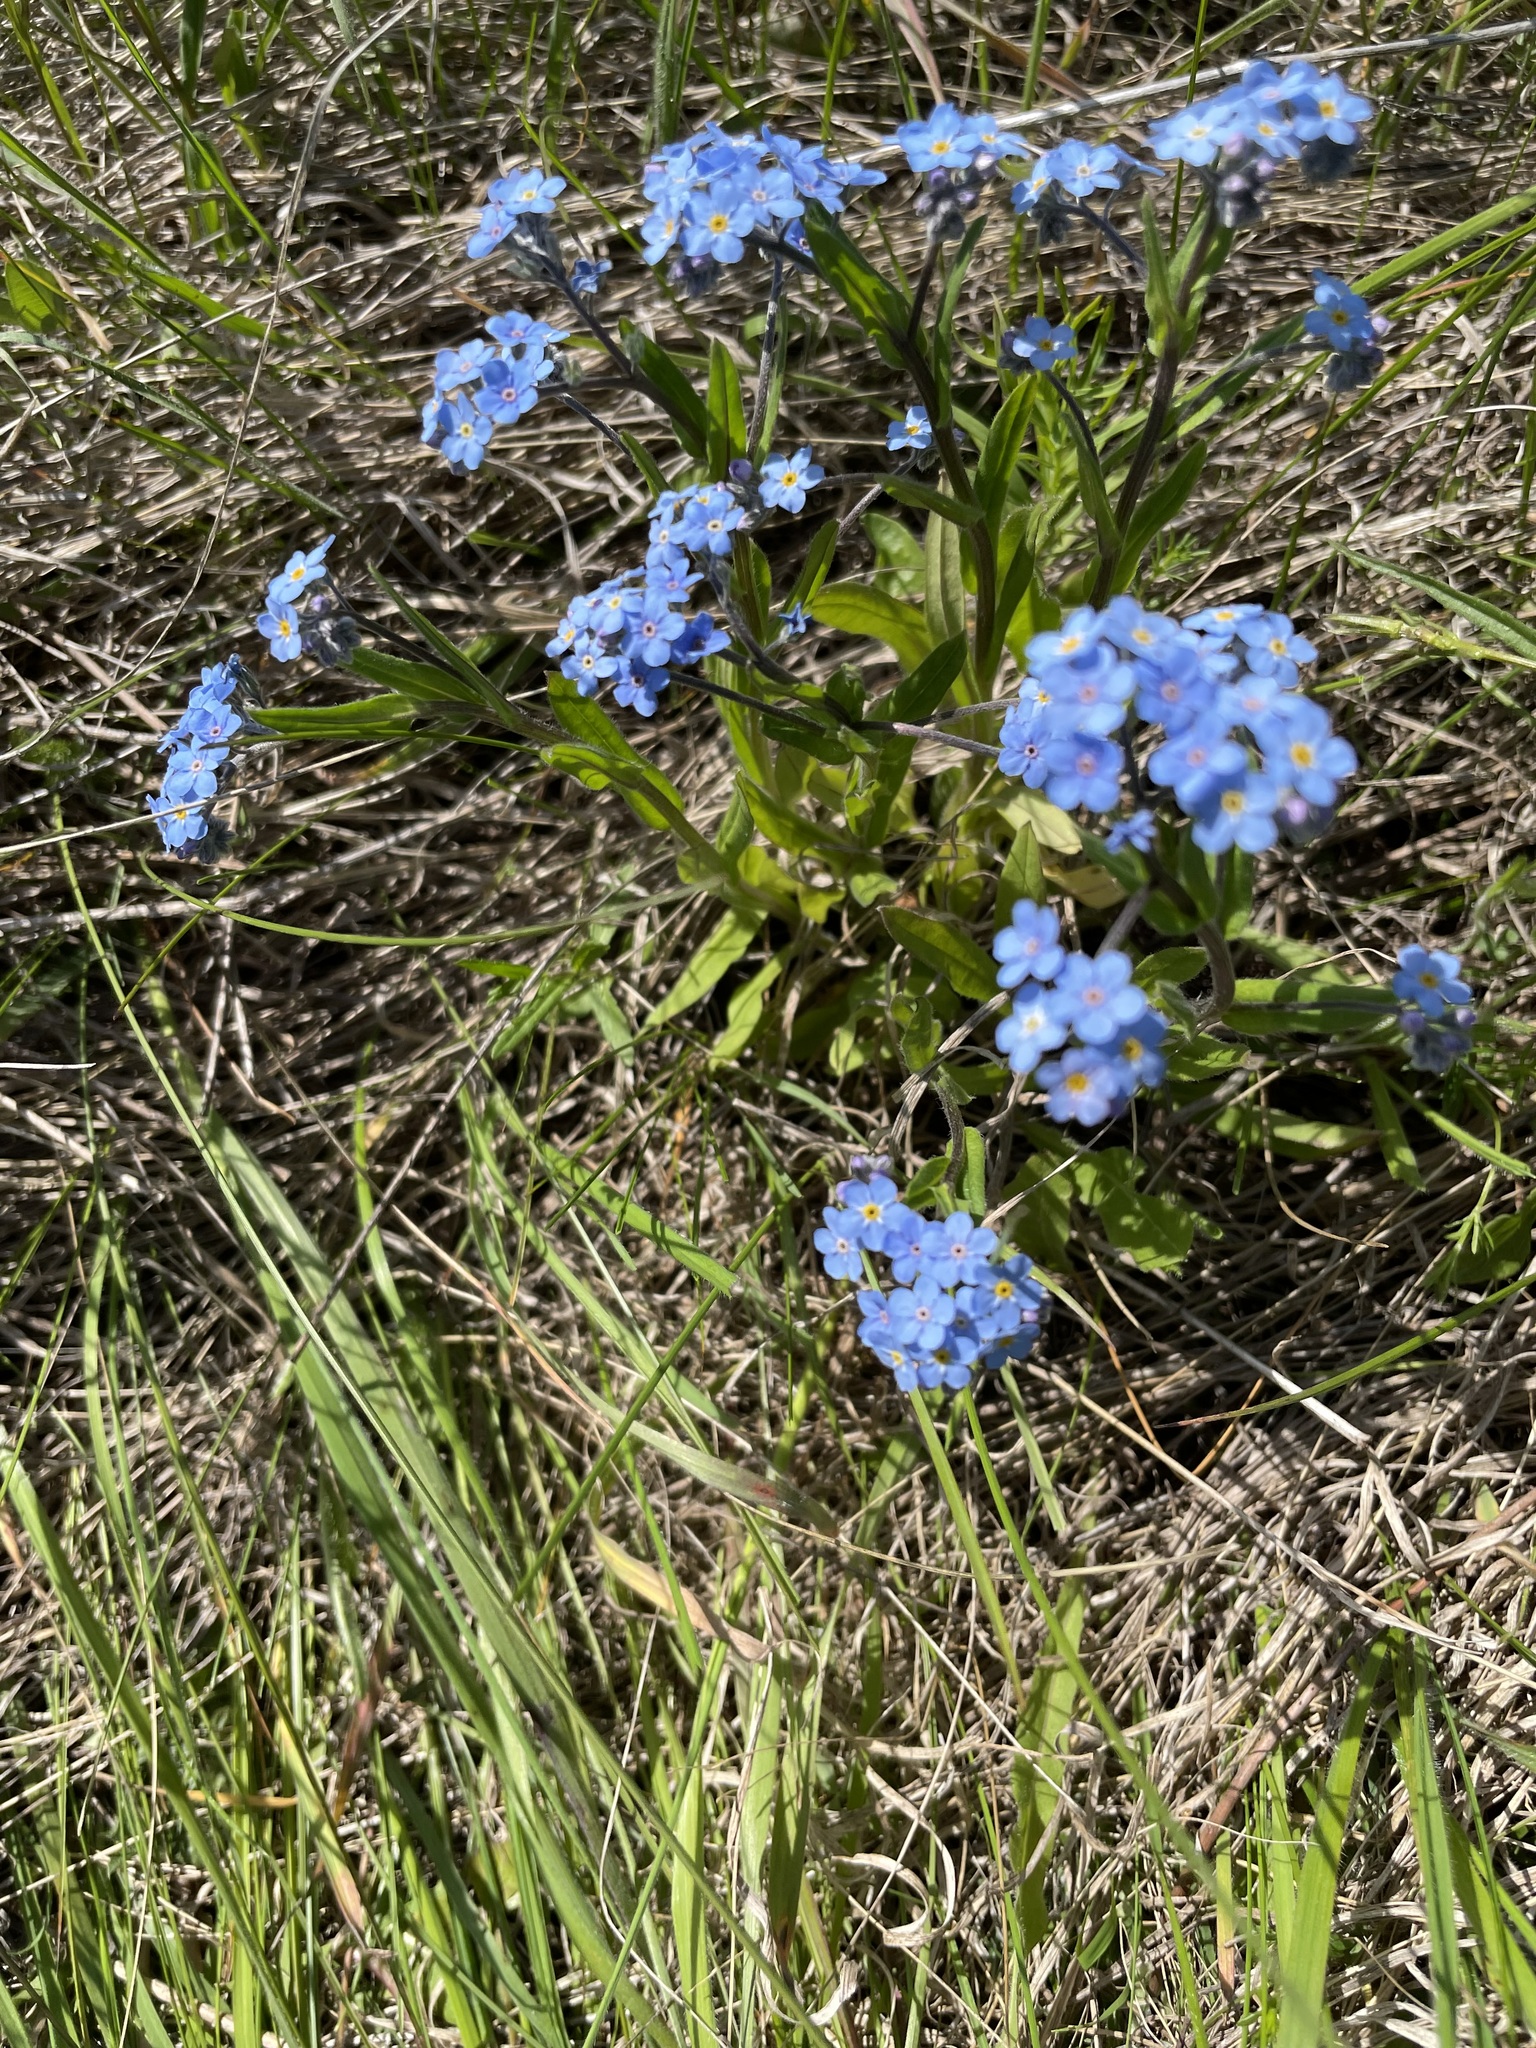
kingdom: Plantae
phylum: Tracheophyta
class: Magnoliopsida
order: Boraginales
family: Boraginaceae
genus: Myosotis
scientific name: Myosotis alpestris
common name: Alpine forget-me-not
